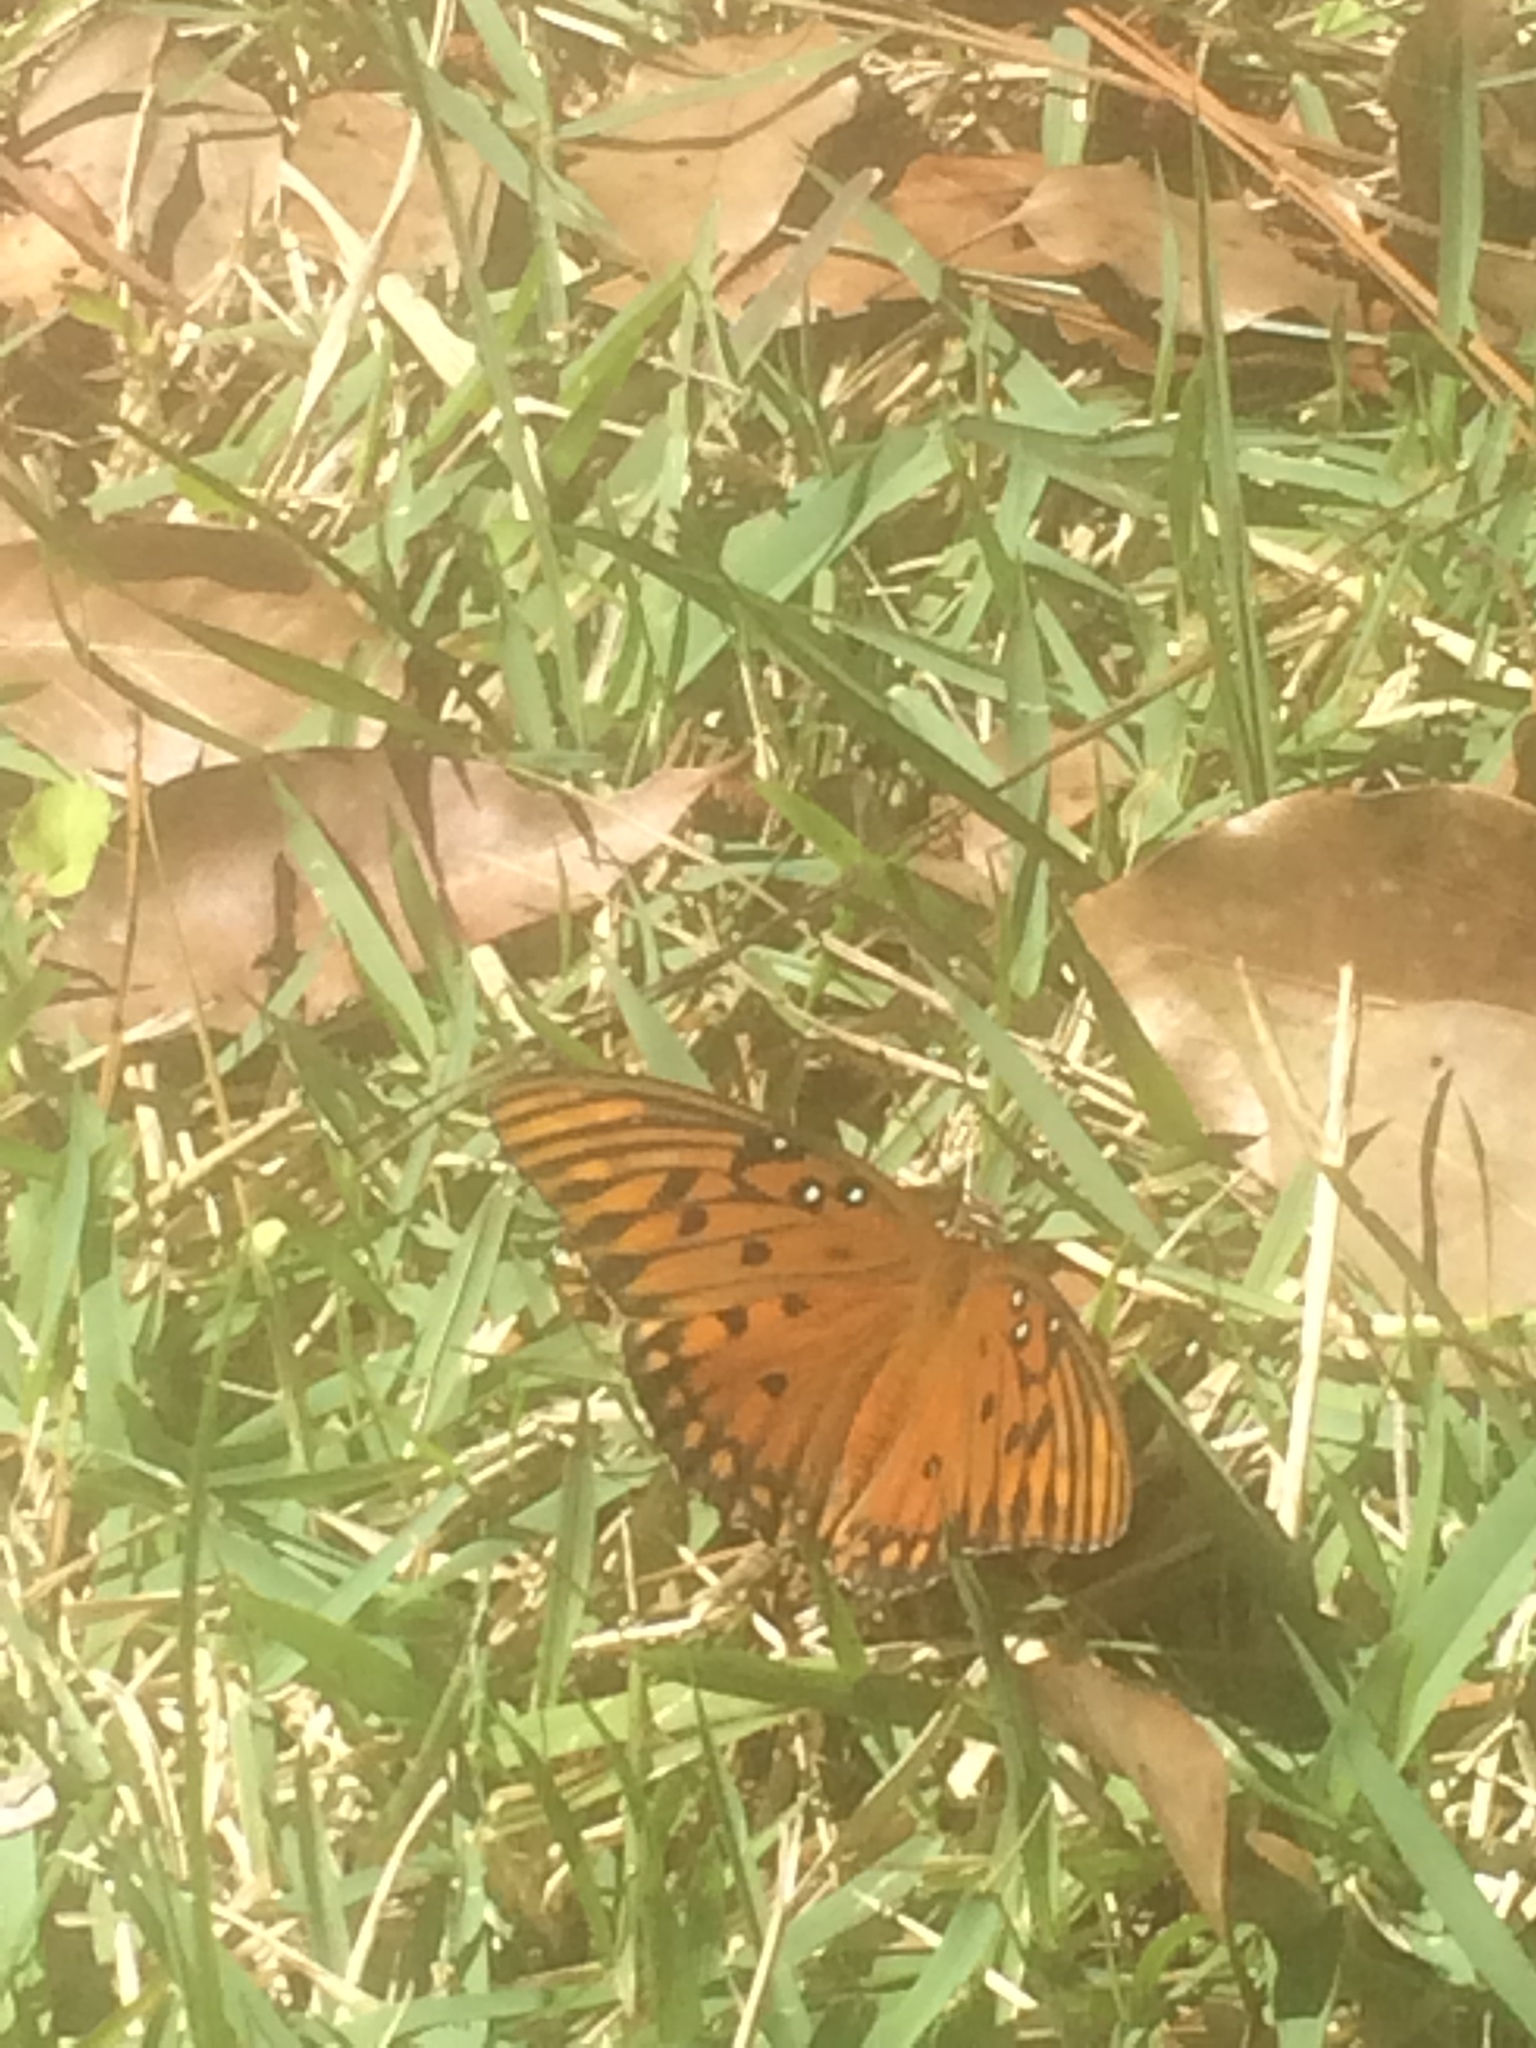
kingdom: Animalia
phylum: Arthropoda
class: Insecta
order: Lepidoptera
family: Nymphalidae
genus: Dione
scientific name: Dione vanillae
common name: Gulf fritillary
